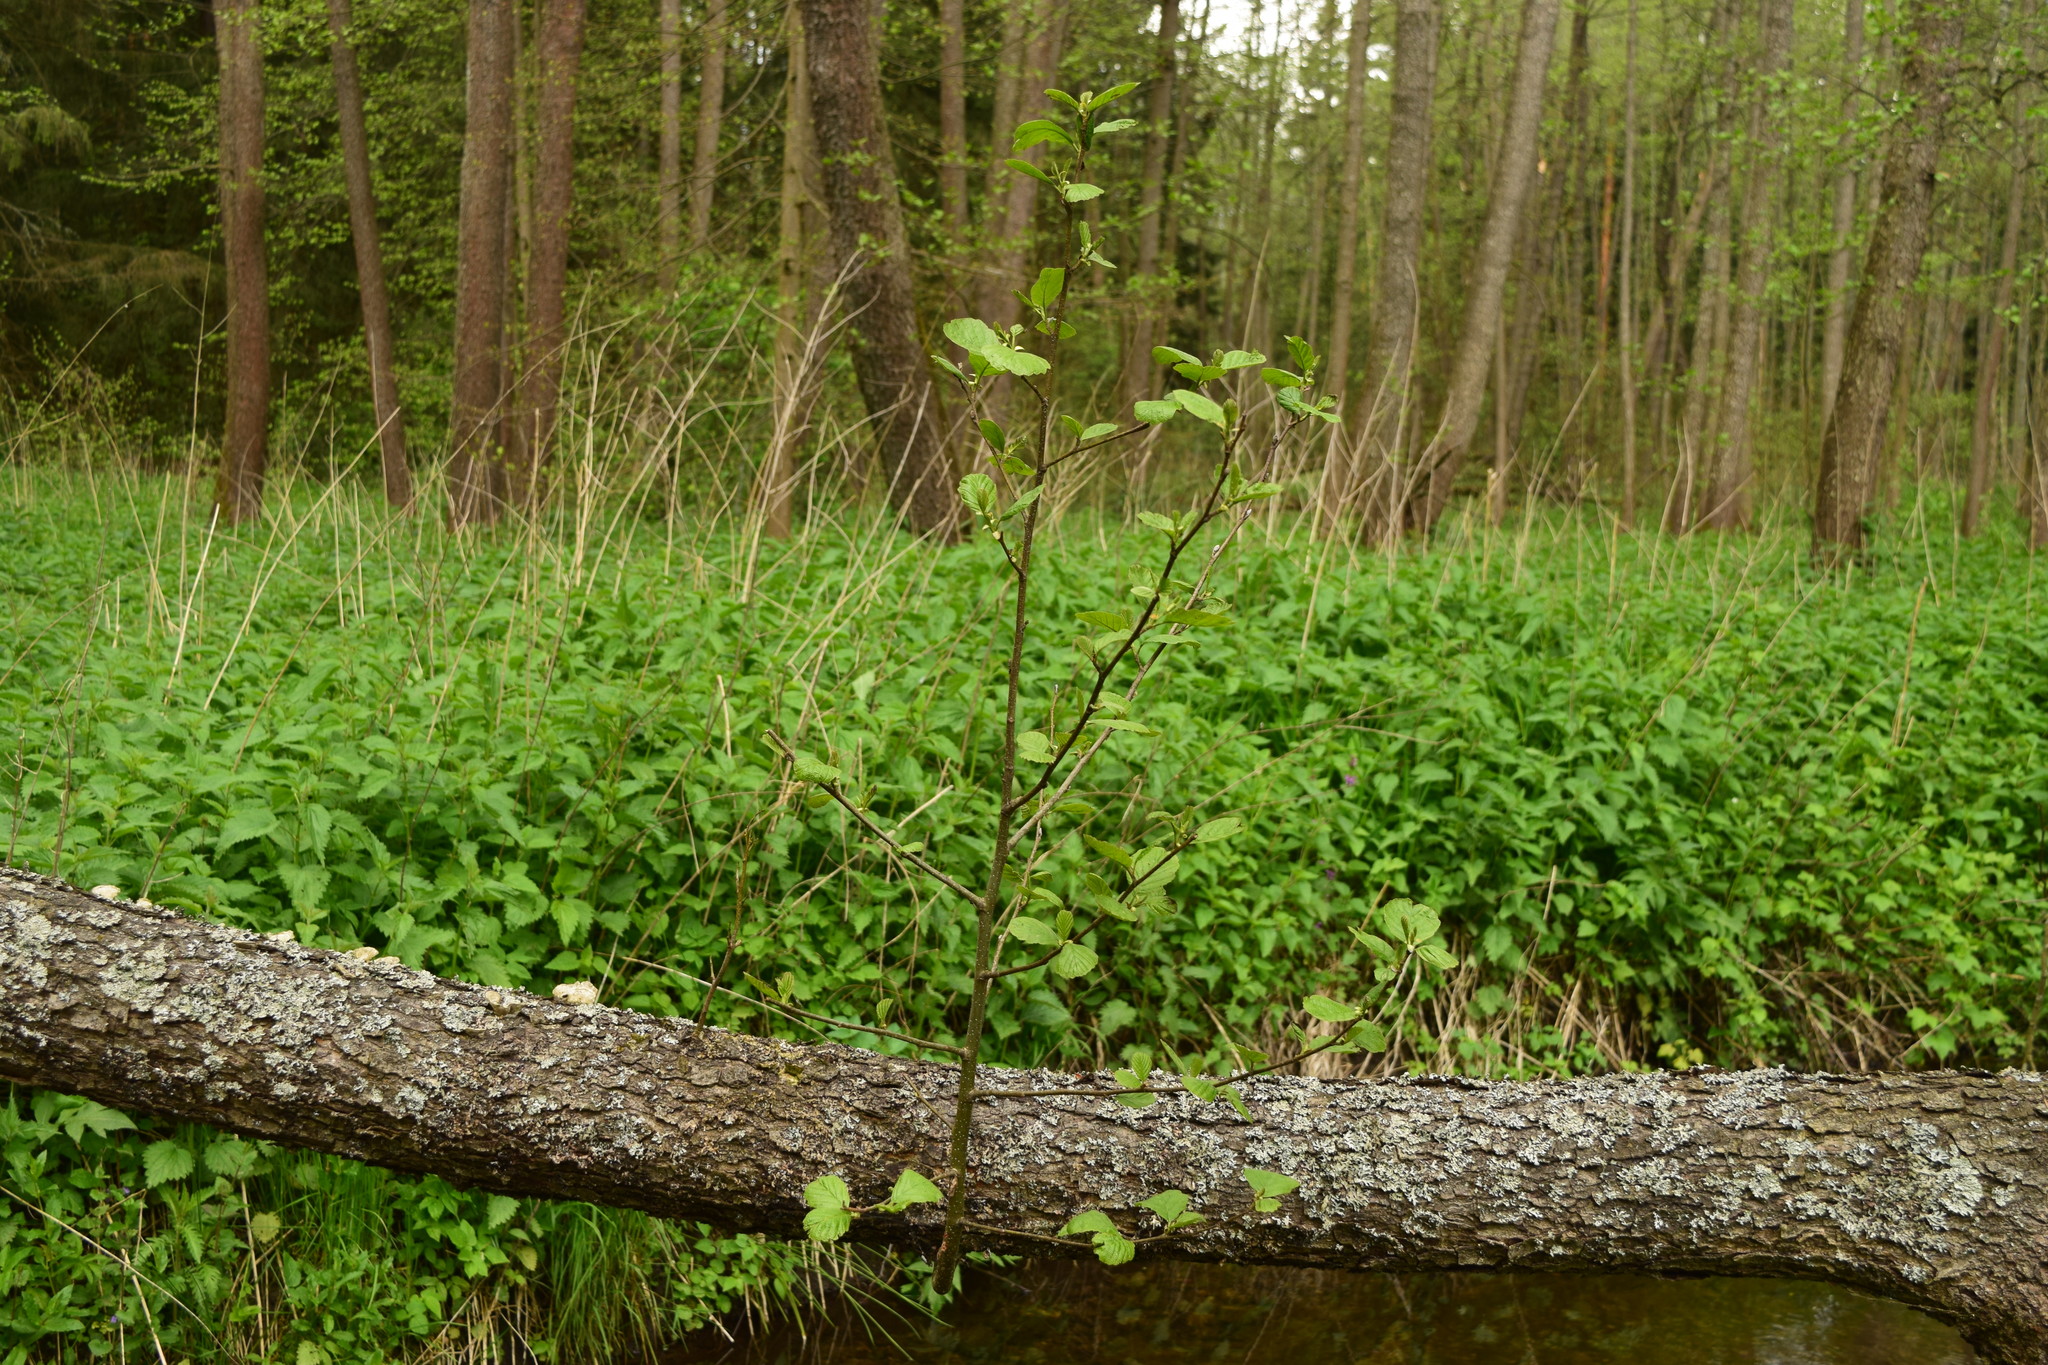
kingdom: Plantae
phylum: Tracheophyta
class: Magnoliopsida
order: Fagales
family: Betulaceae
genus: Alnus
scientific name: Alnus glutinosa
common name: Black alder
